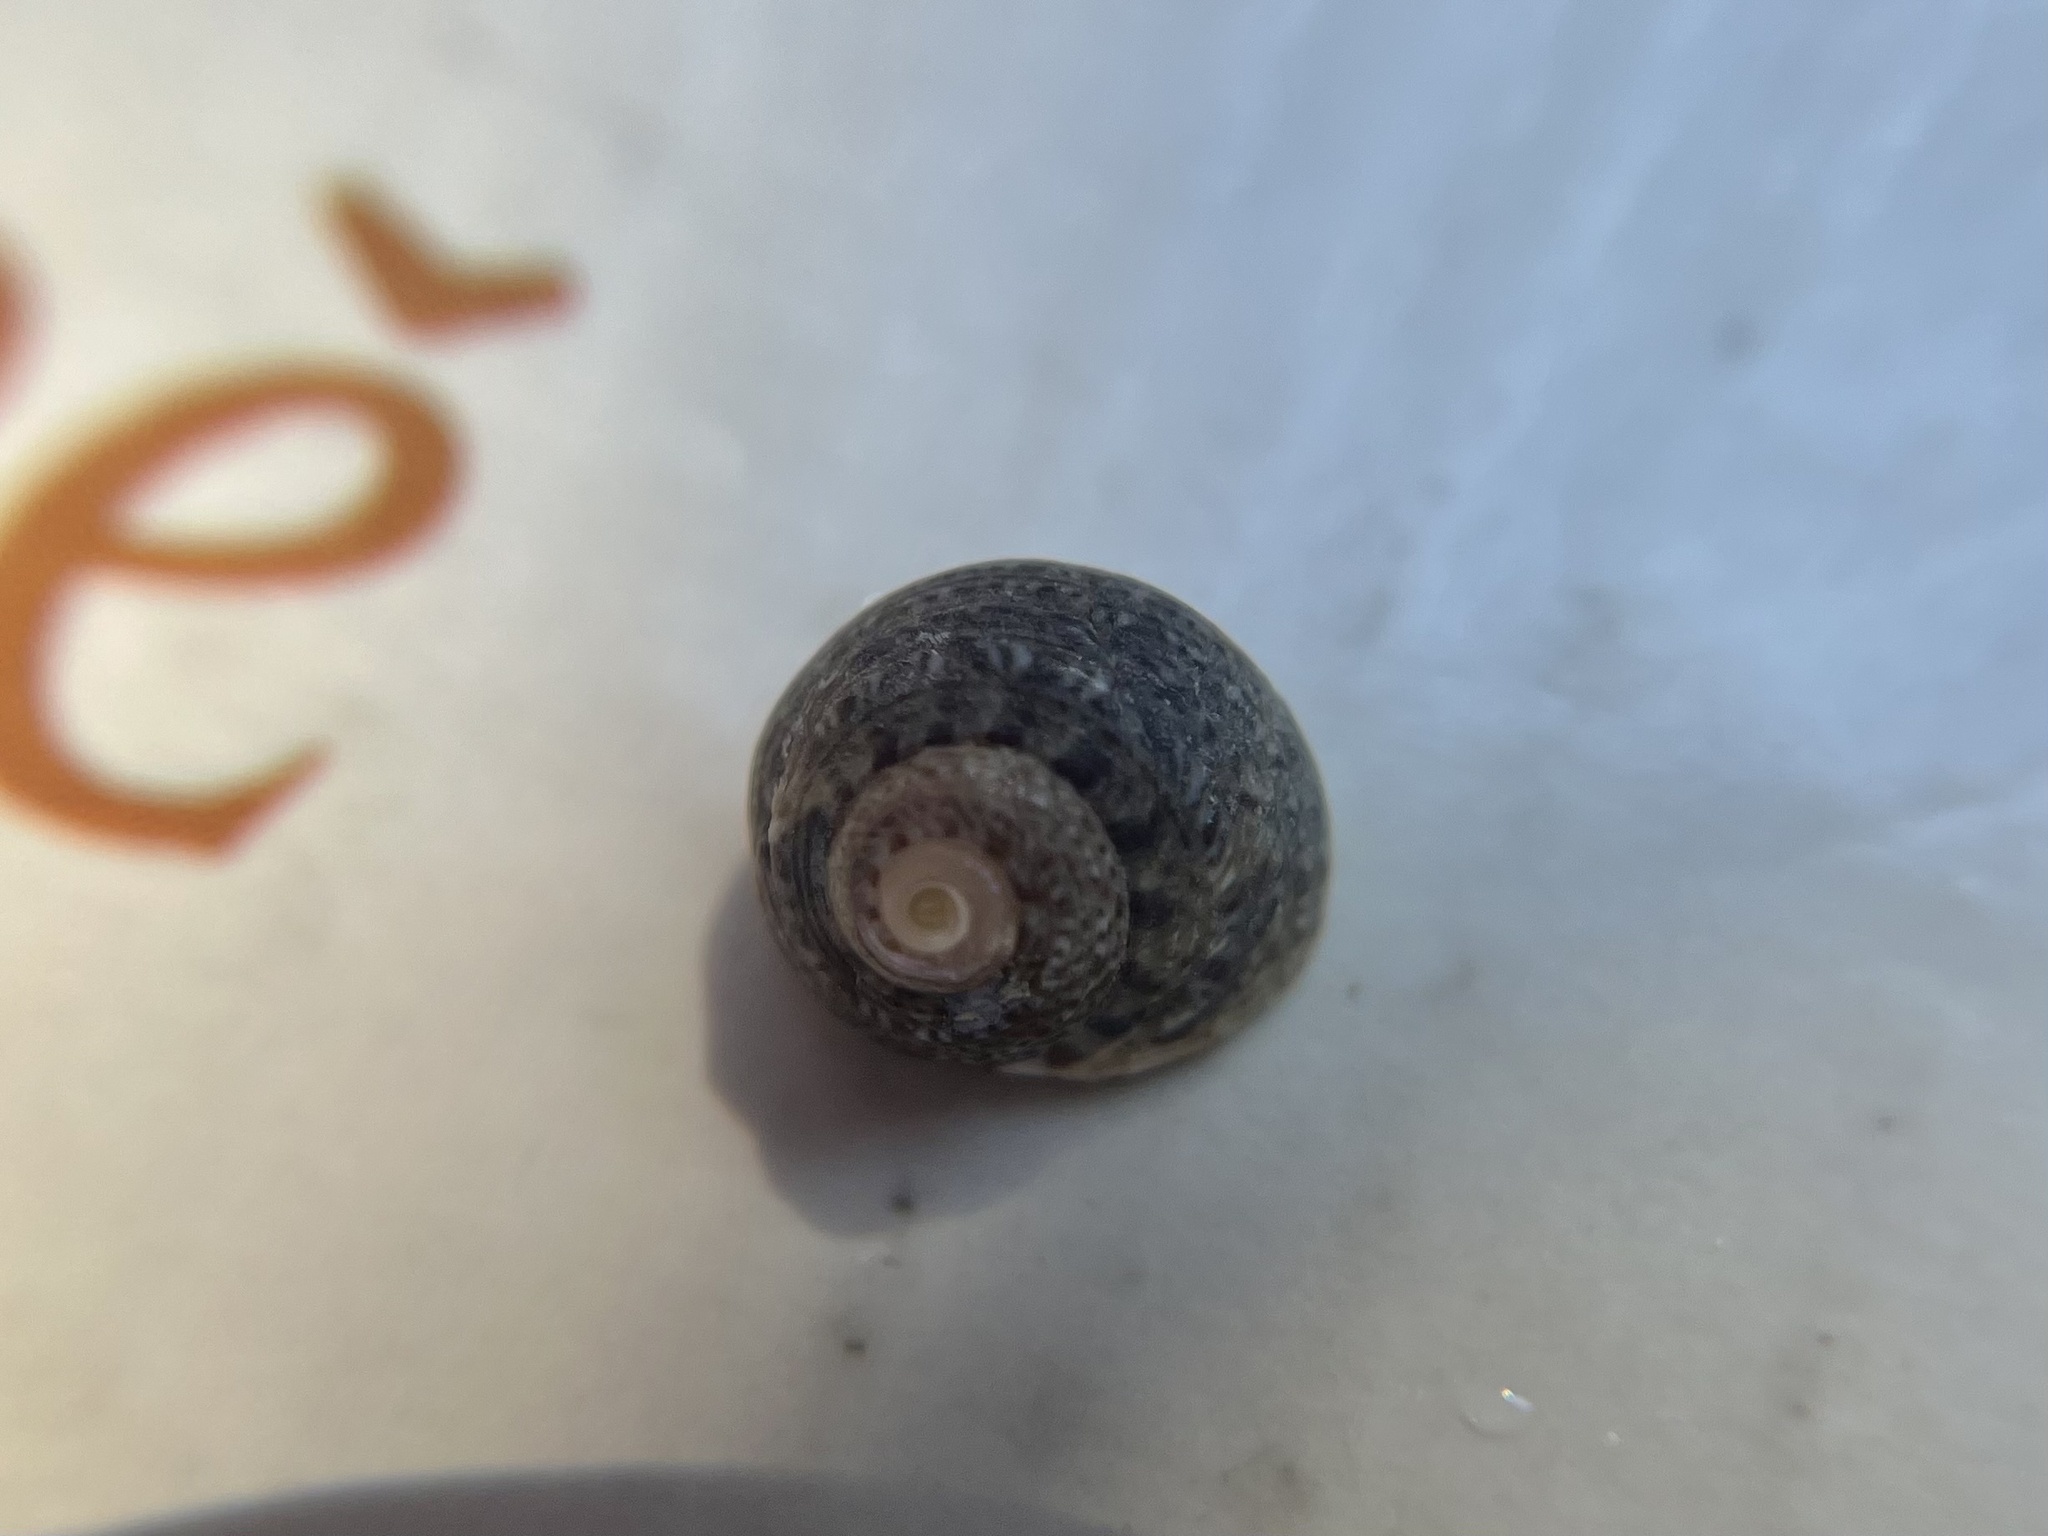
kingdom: Animalia
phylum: Mollusca
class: Gastropoda
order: Trochida
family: Trochidae
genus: Phorcus
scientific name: Phorcus articulatus
